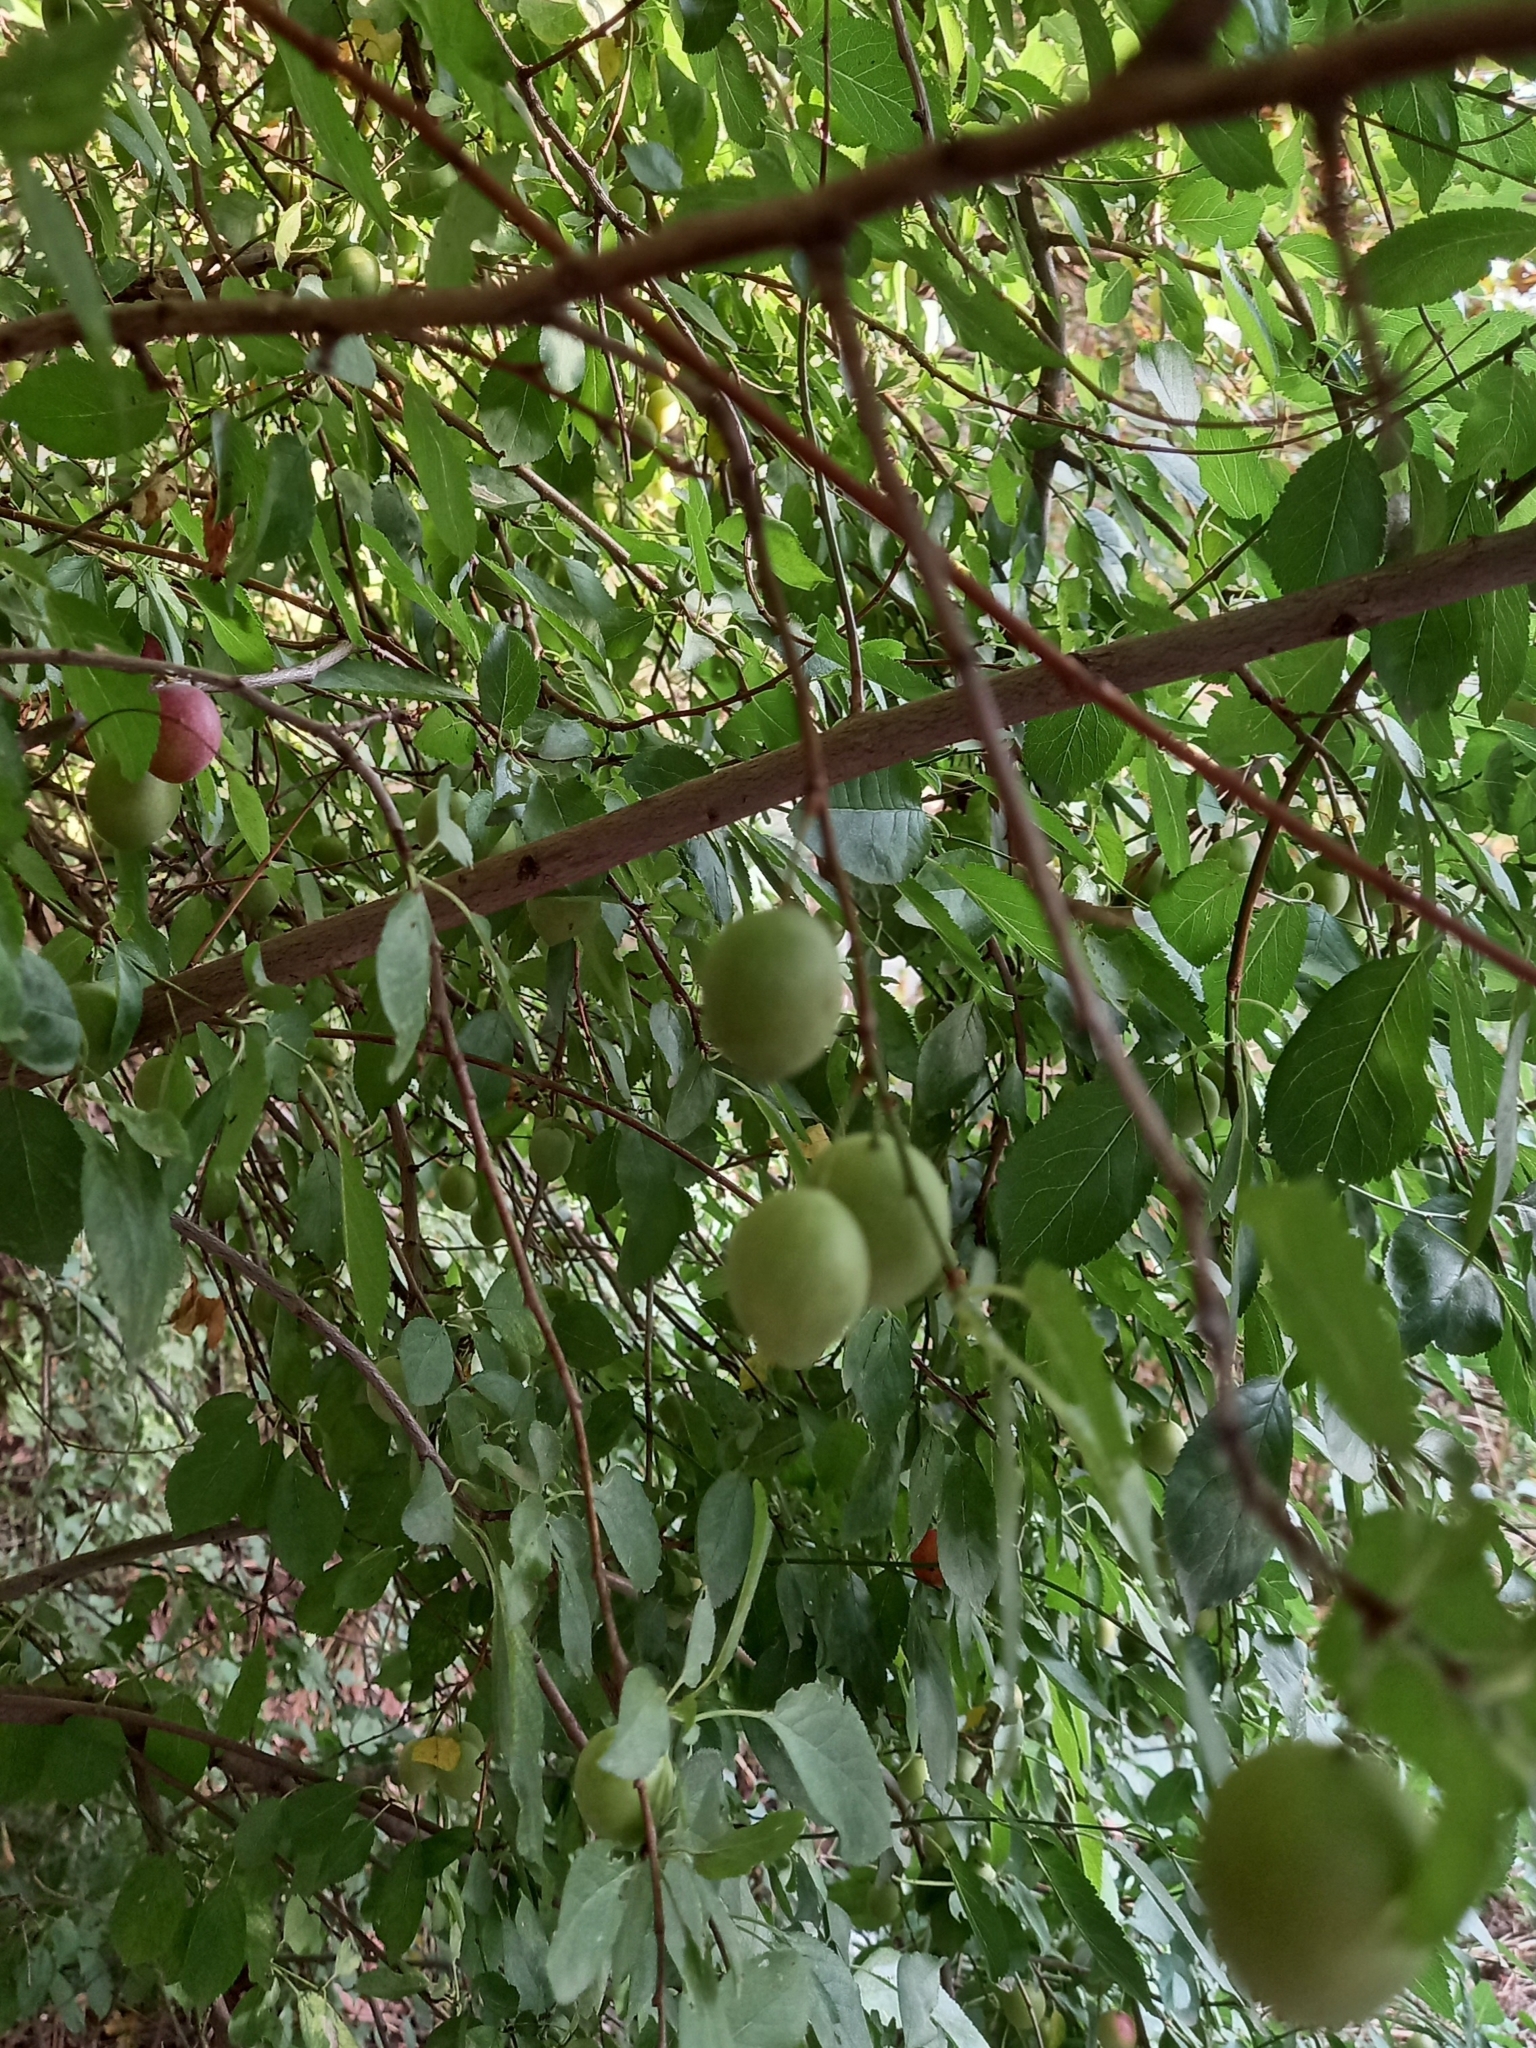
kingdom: Plantae
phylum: Tracheophyta
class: Magnoliopsida
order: Rosales
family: Rosaceae
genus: Prunus
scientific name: Prunus cerasifera
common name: Cherry plum
